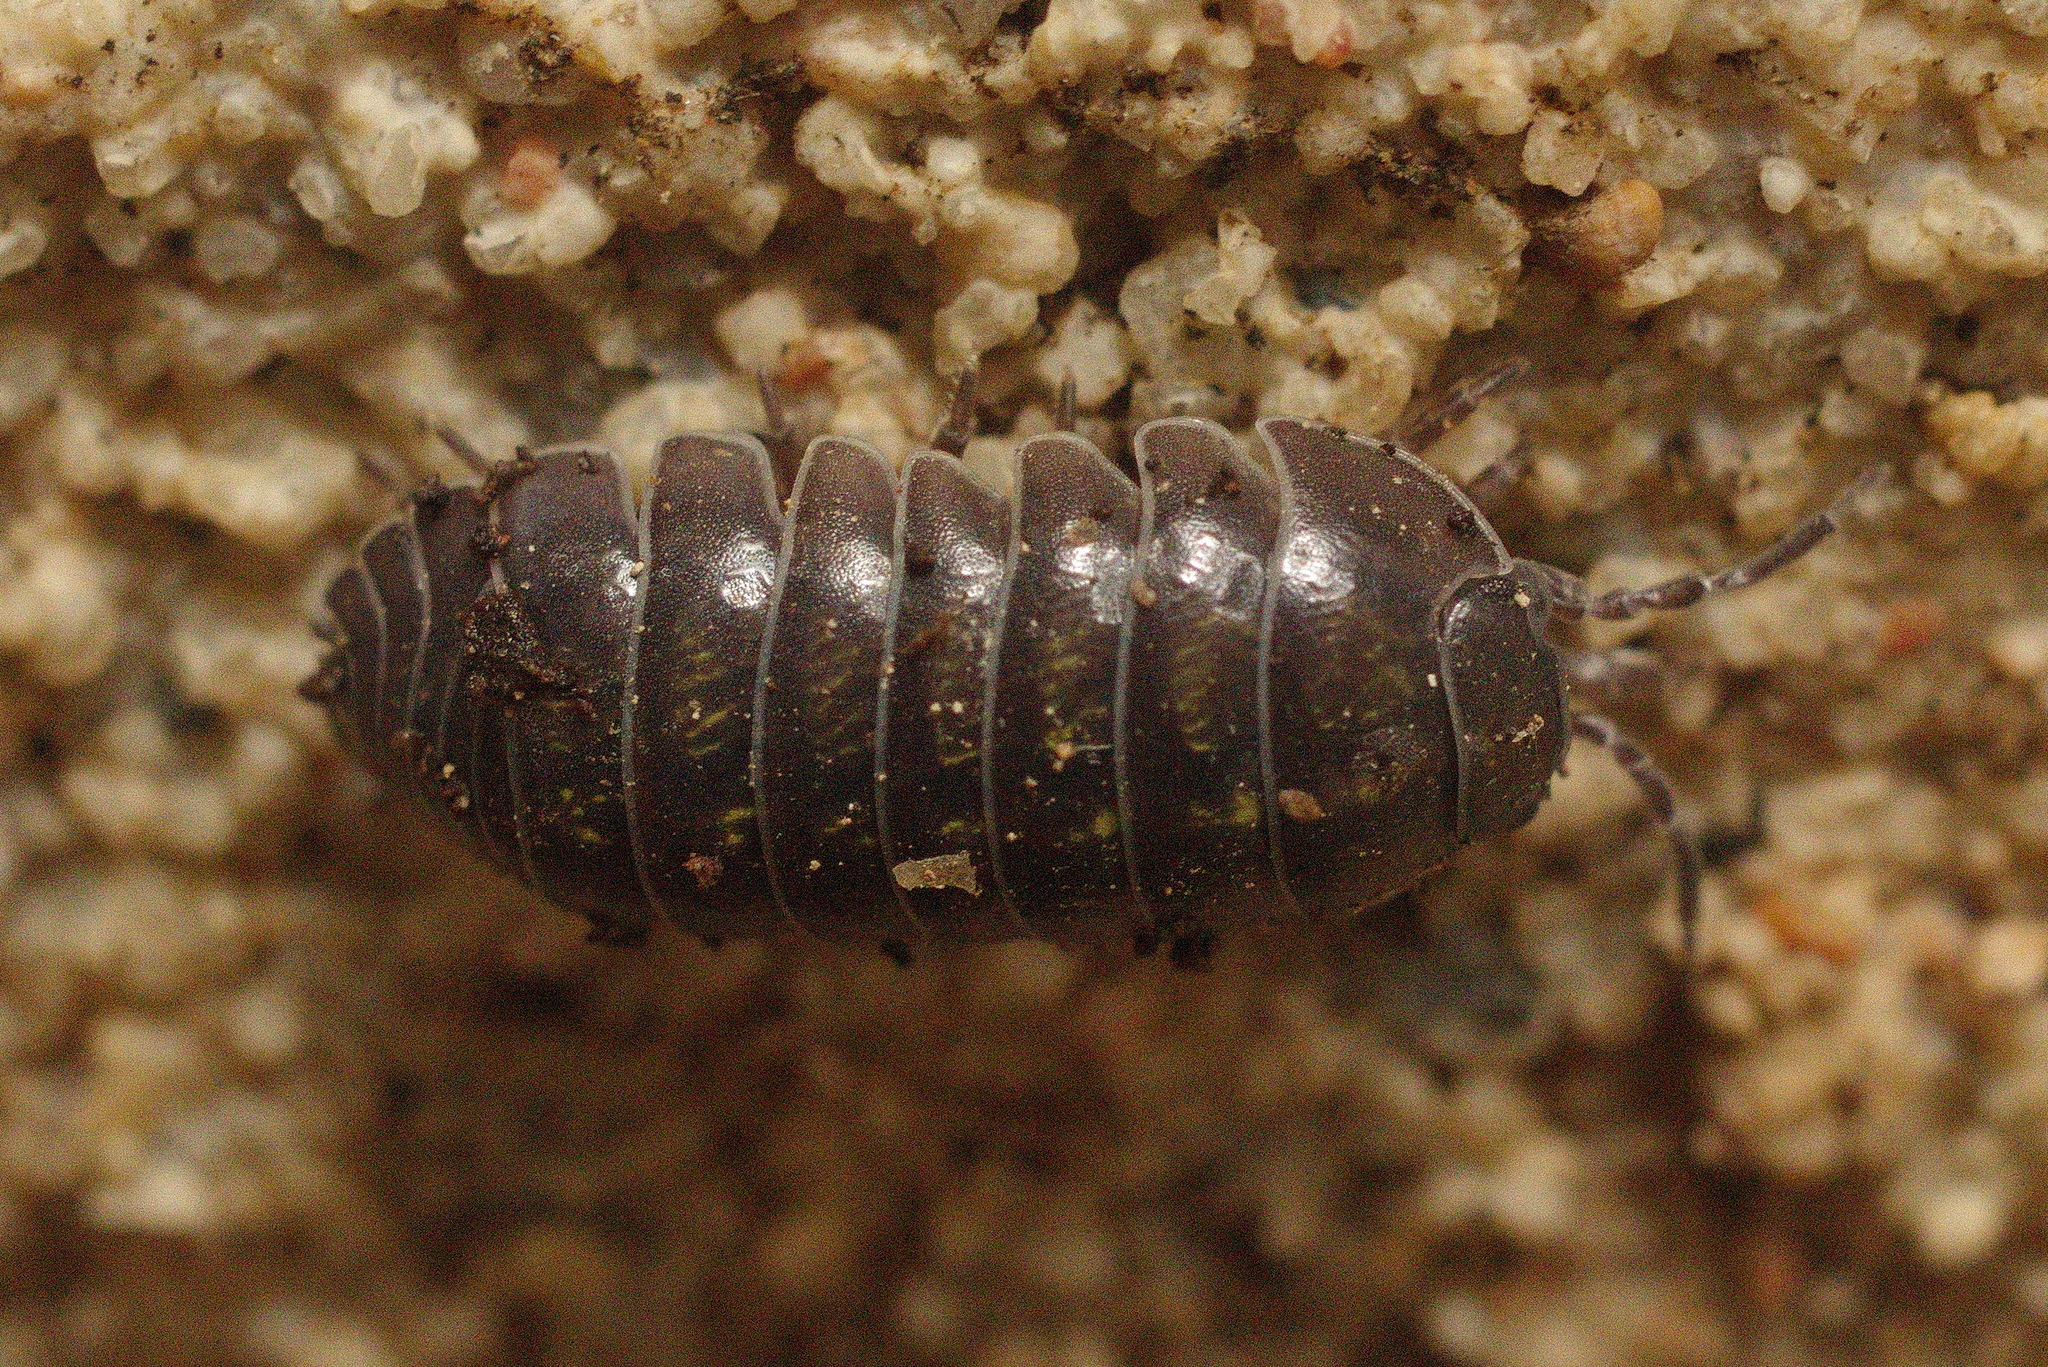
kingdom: Animalia
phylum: Arthropoda
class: Malacostraca
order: Isopoda
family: Armadillidiidae
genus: Armadillidium
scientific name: Armadillidium vulgare
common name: Common pill woodlouse
